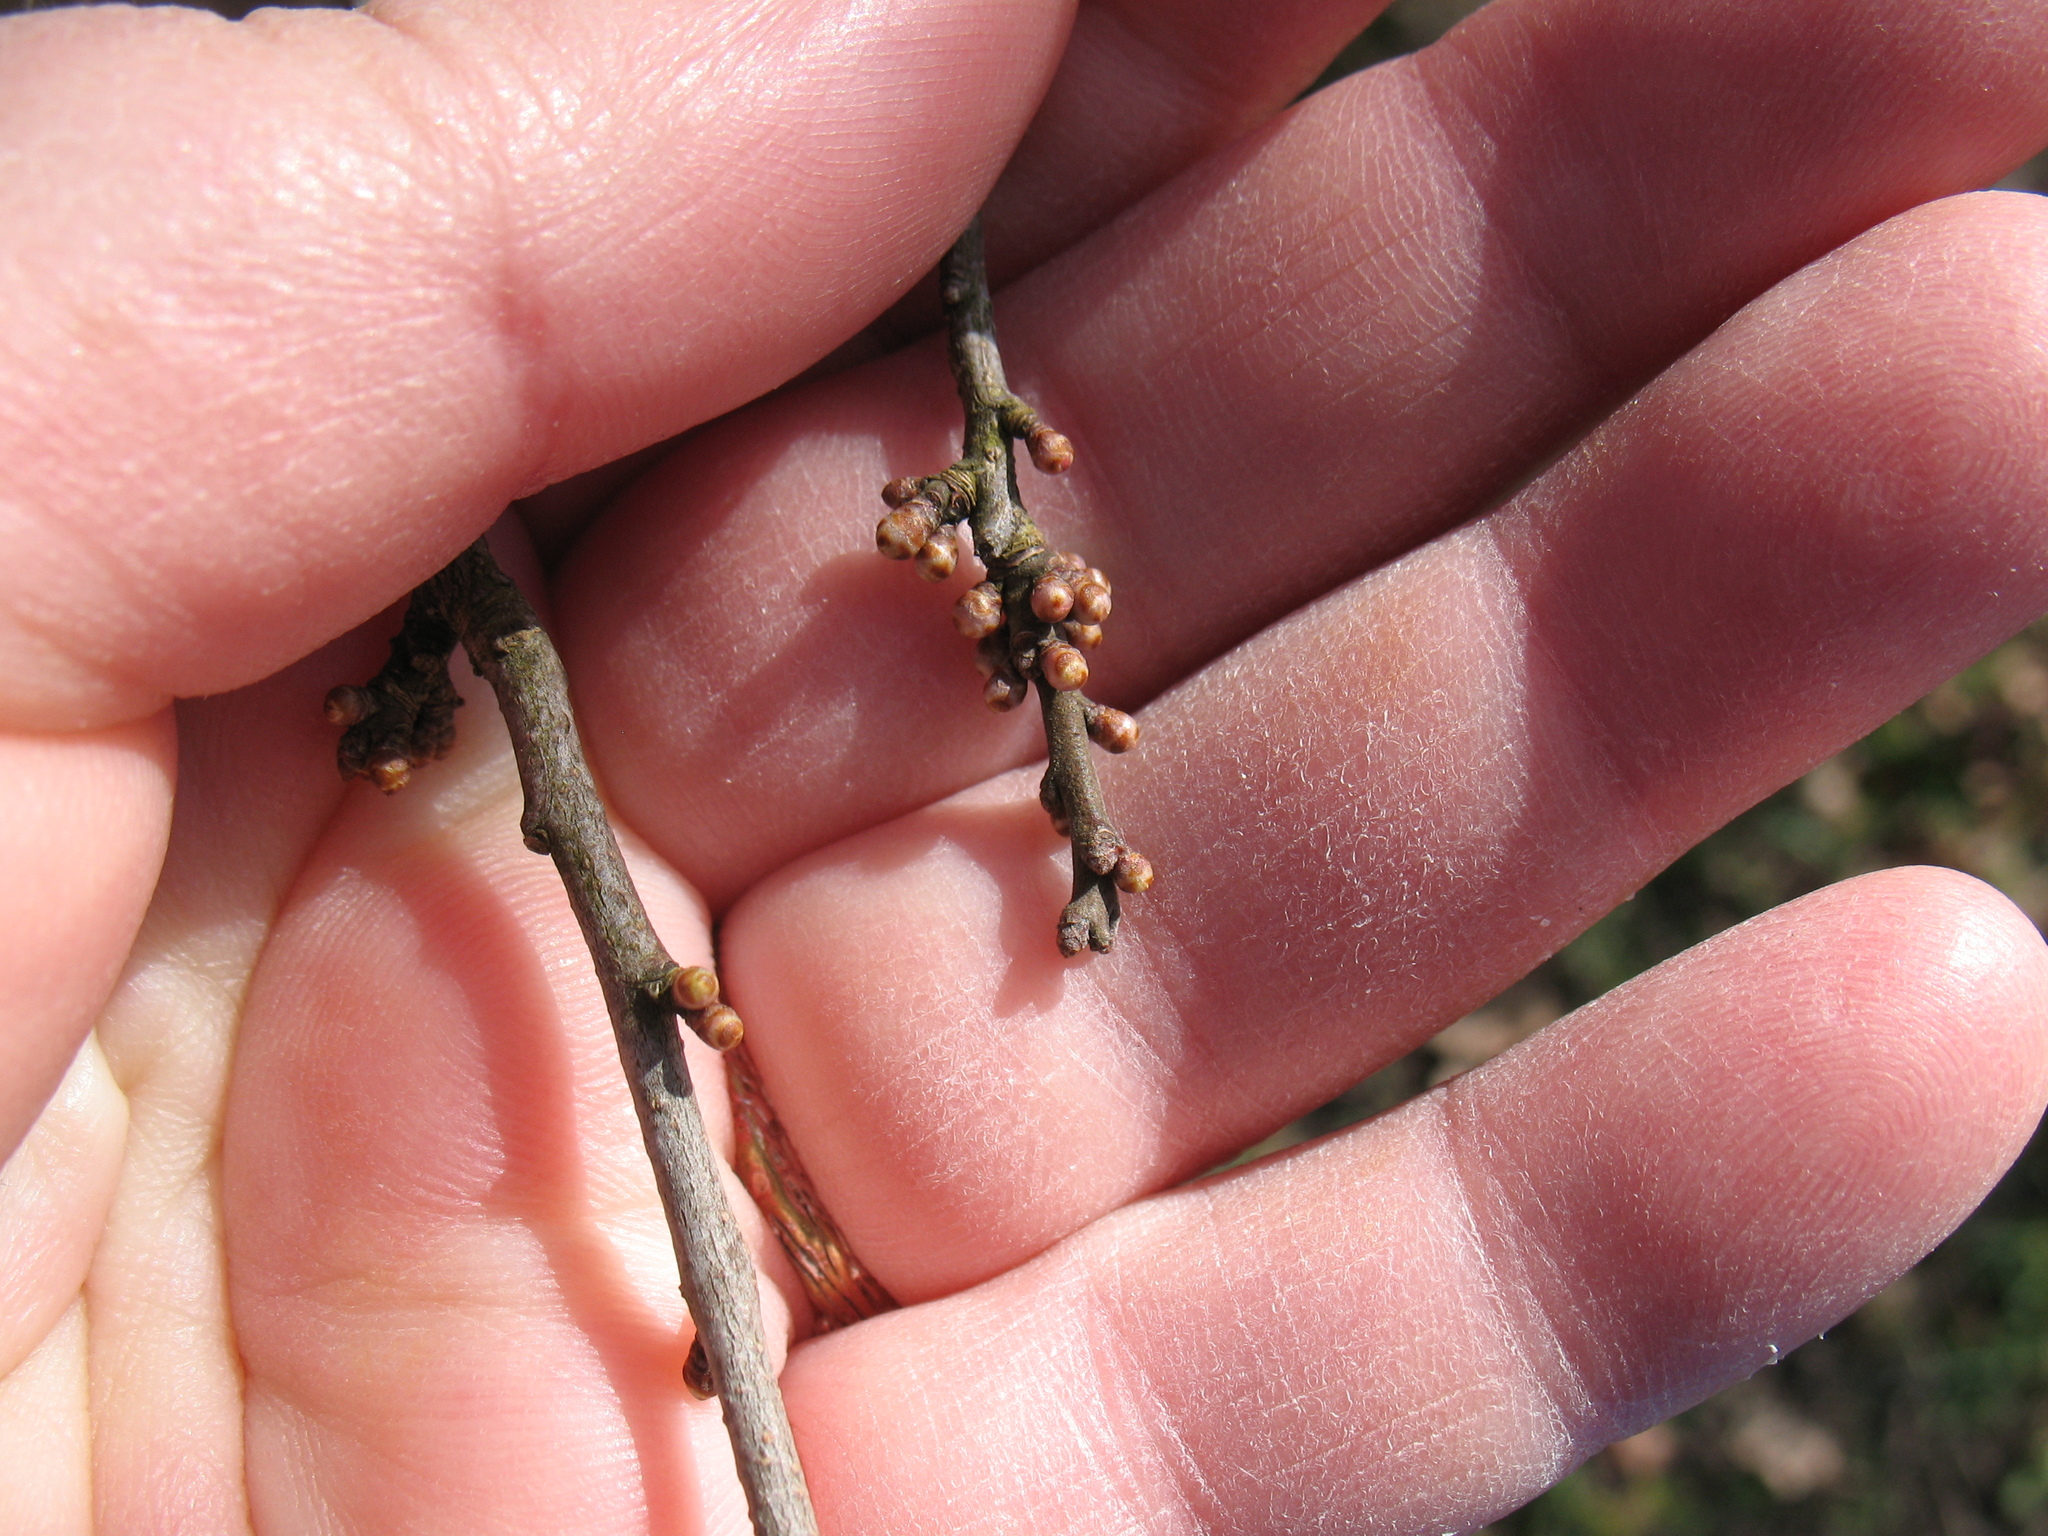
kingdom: Plantae
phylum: Tracheophyta
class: Magnoliopsida
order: Rosales
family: Rosaceae
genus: Prunus
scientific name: Prunus spinosa
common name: Blackthorn
